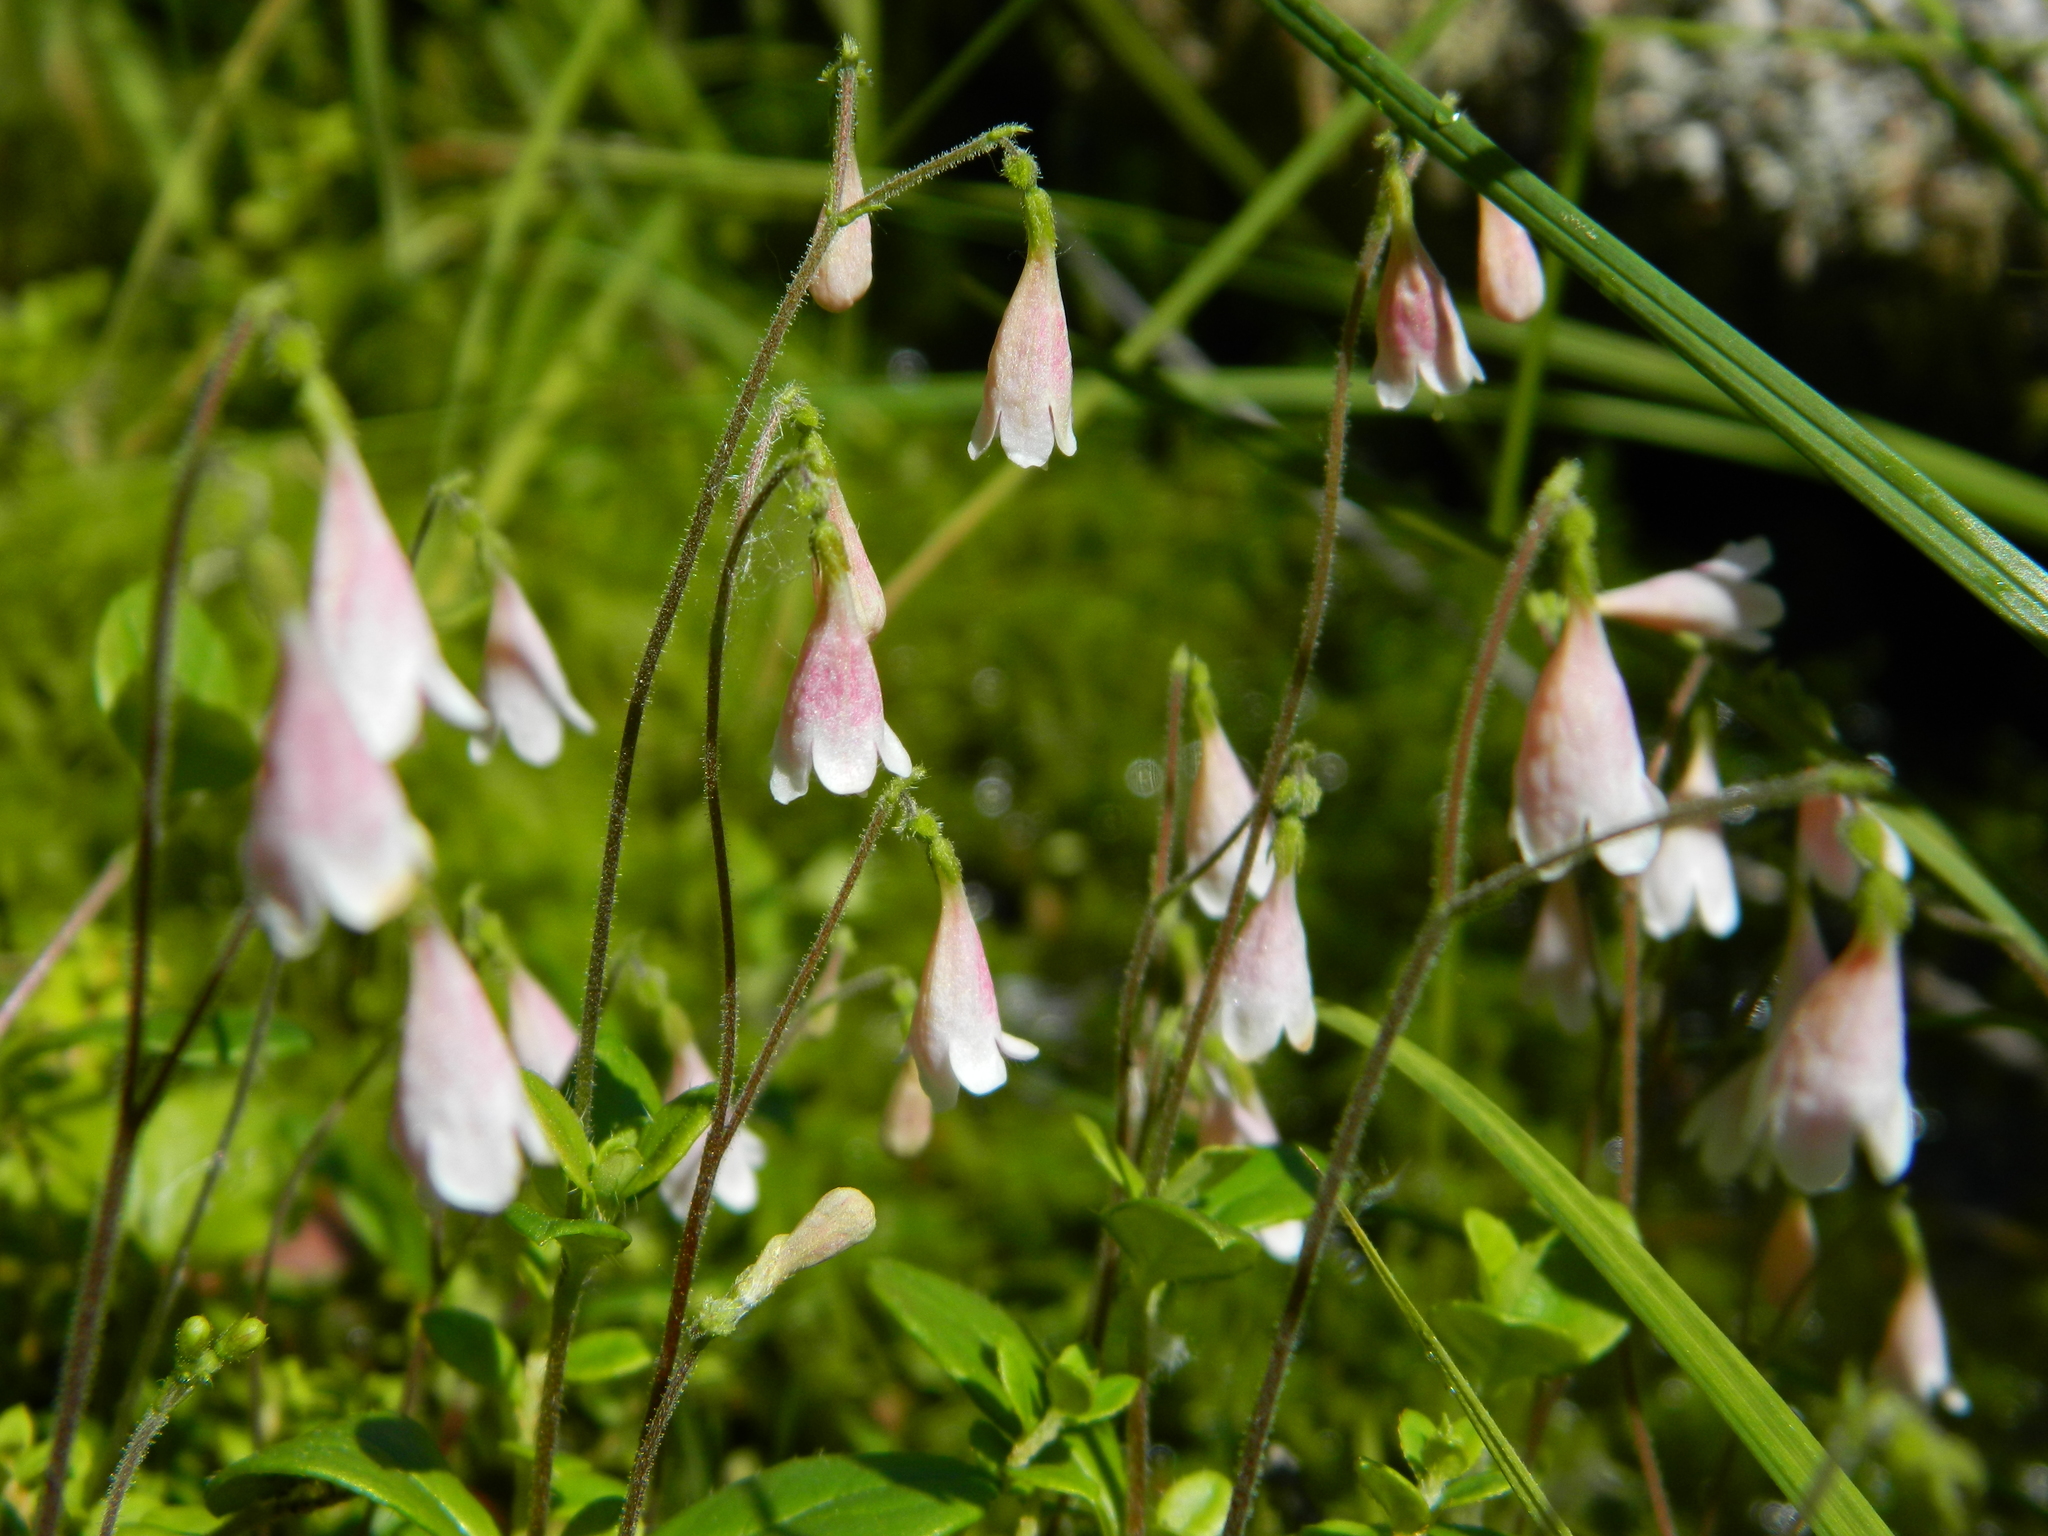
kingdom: Plantae
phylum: Tracheophyta
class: Magnoliopsida
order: Dipsacales
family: Caprifoliaceae
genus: Linnaea
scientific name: Linnaea borealis
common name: Twinflower
